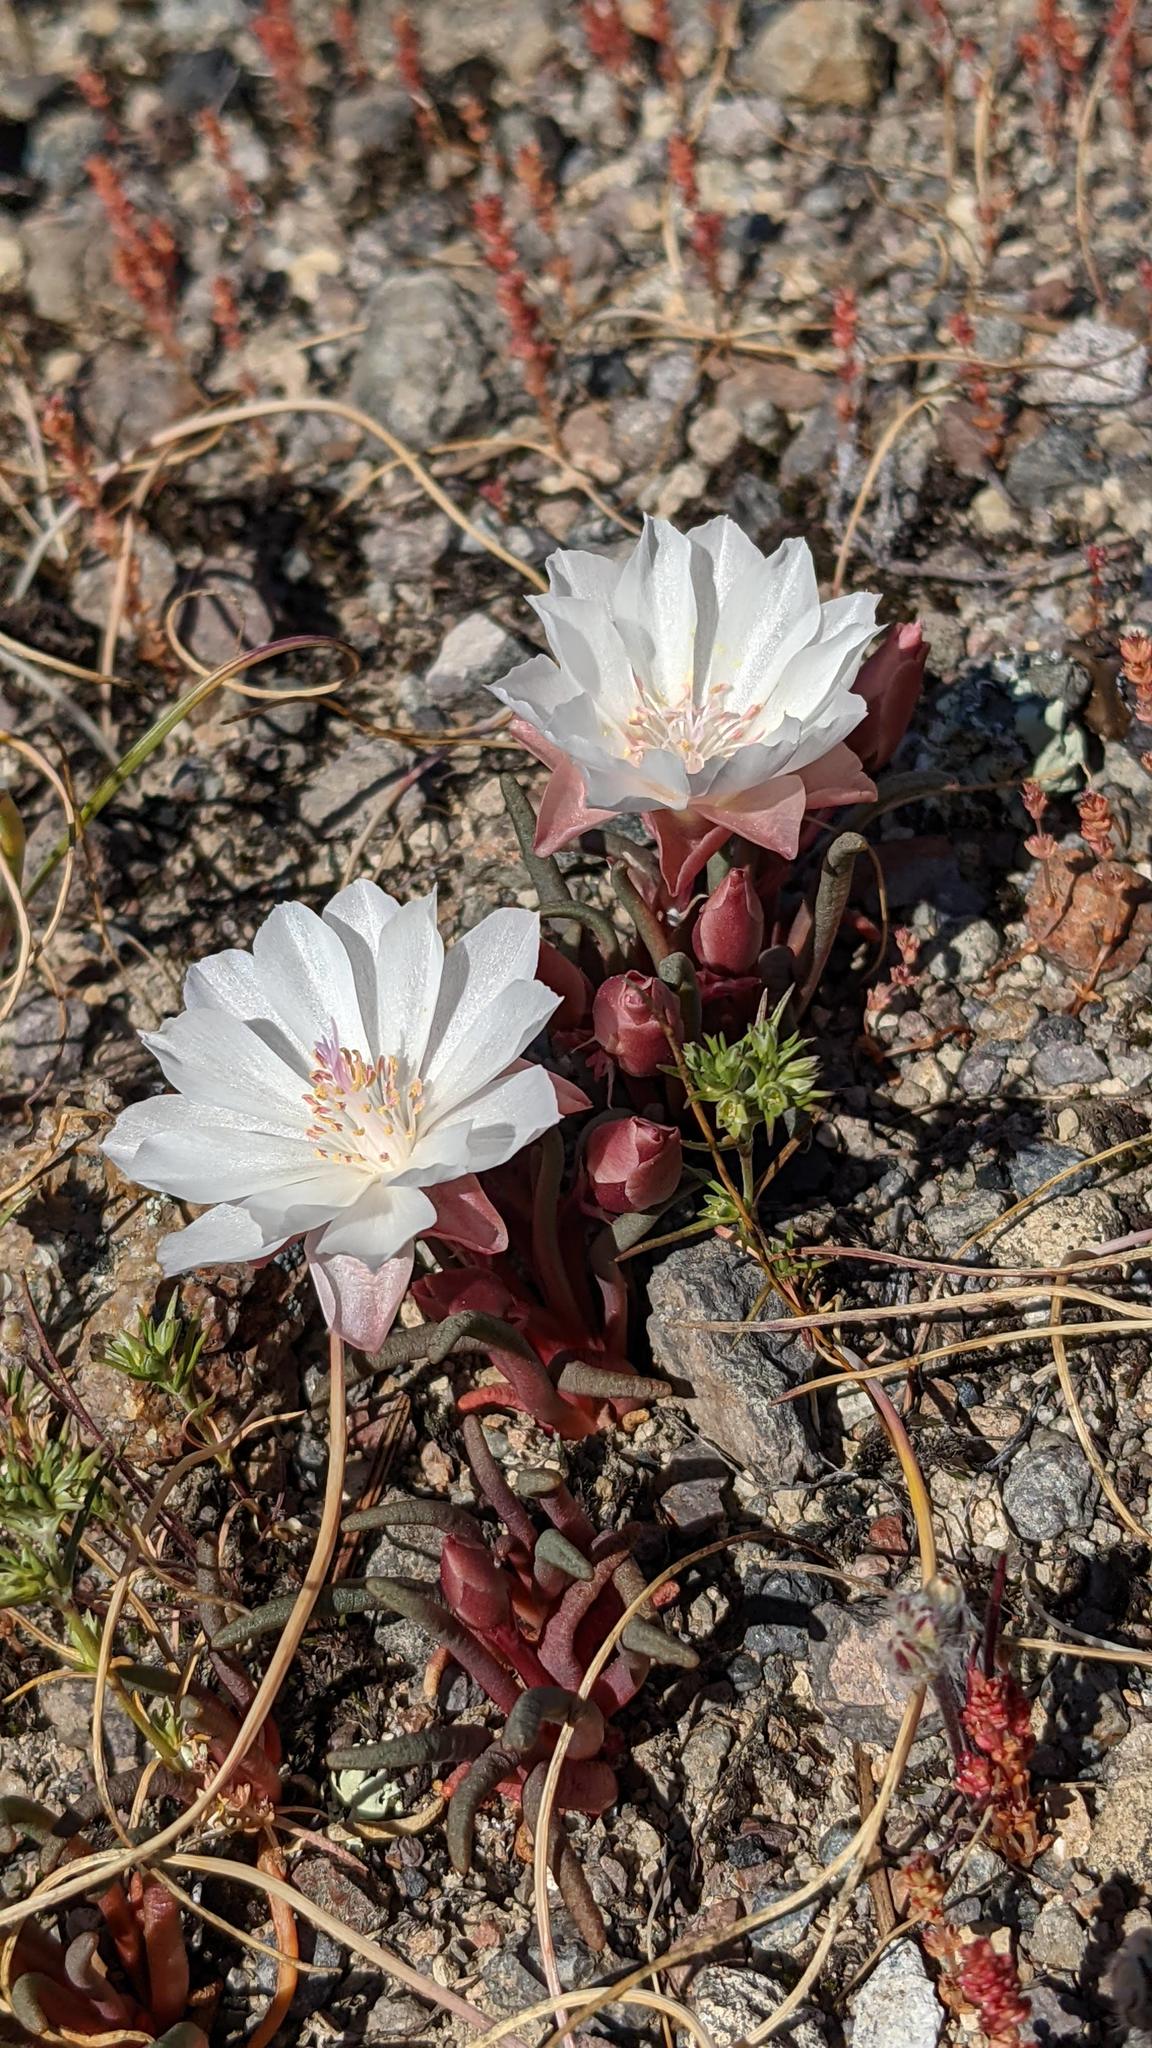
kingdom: Plantae
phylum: Tracheophyta
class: Magnoliopsida
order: Caryophyllales
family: Montiaceae
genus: Lewisia
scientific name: Lewisia rediviva
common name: Bitter-root
